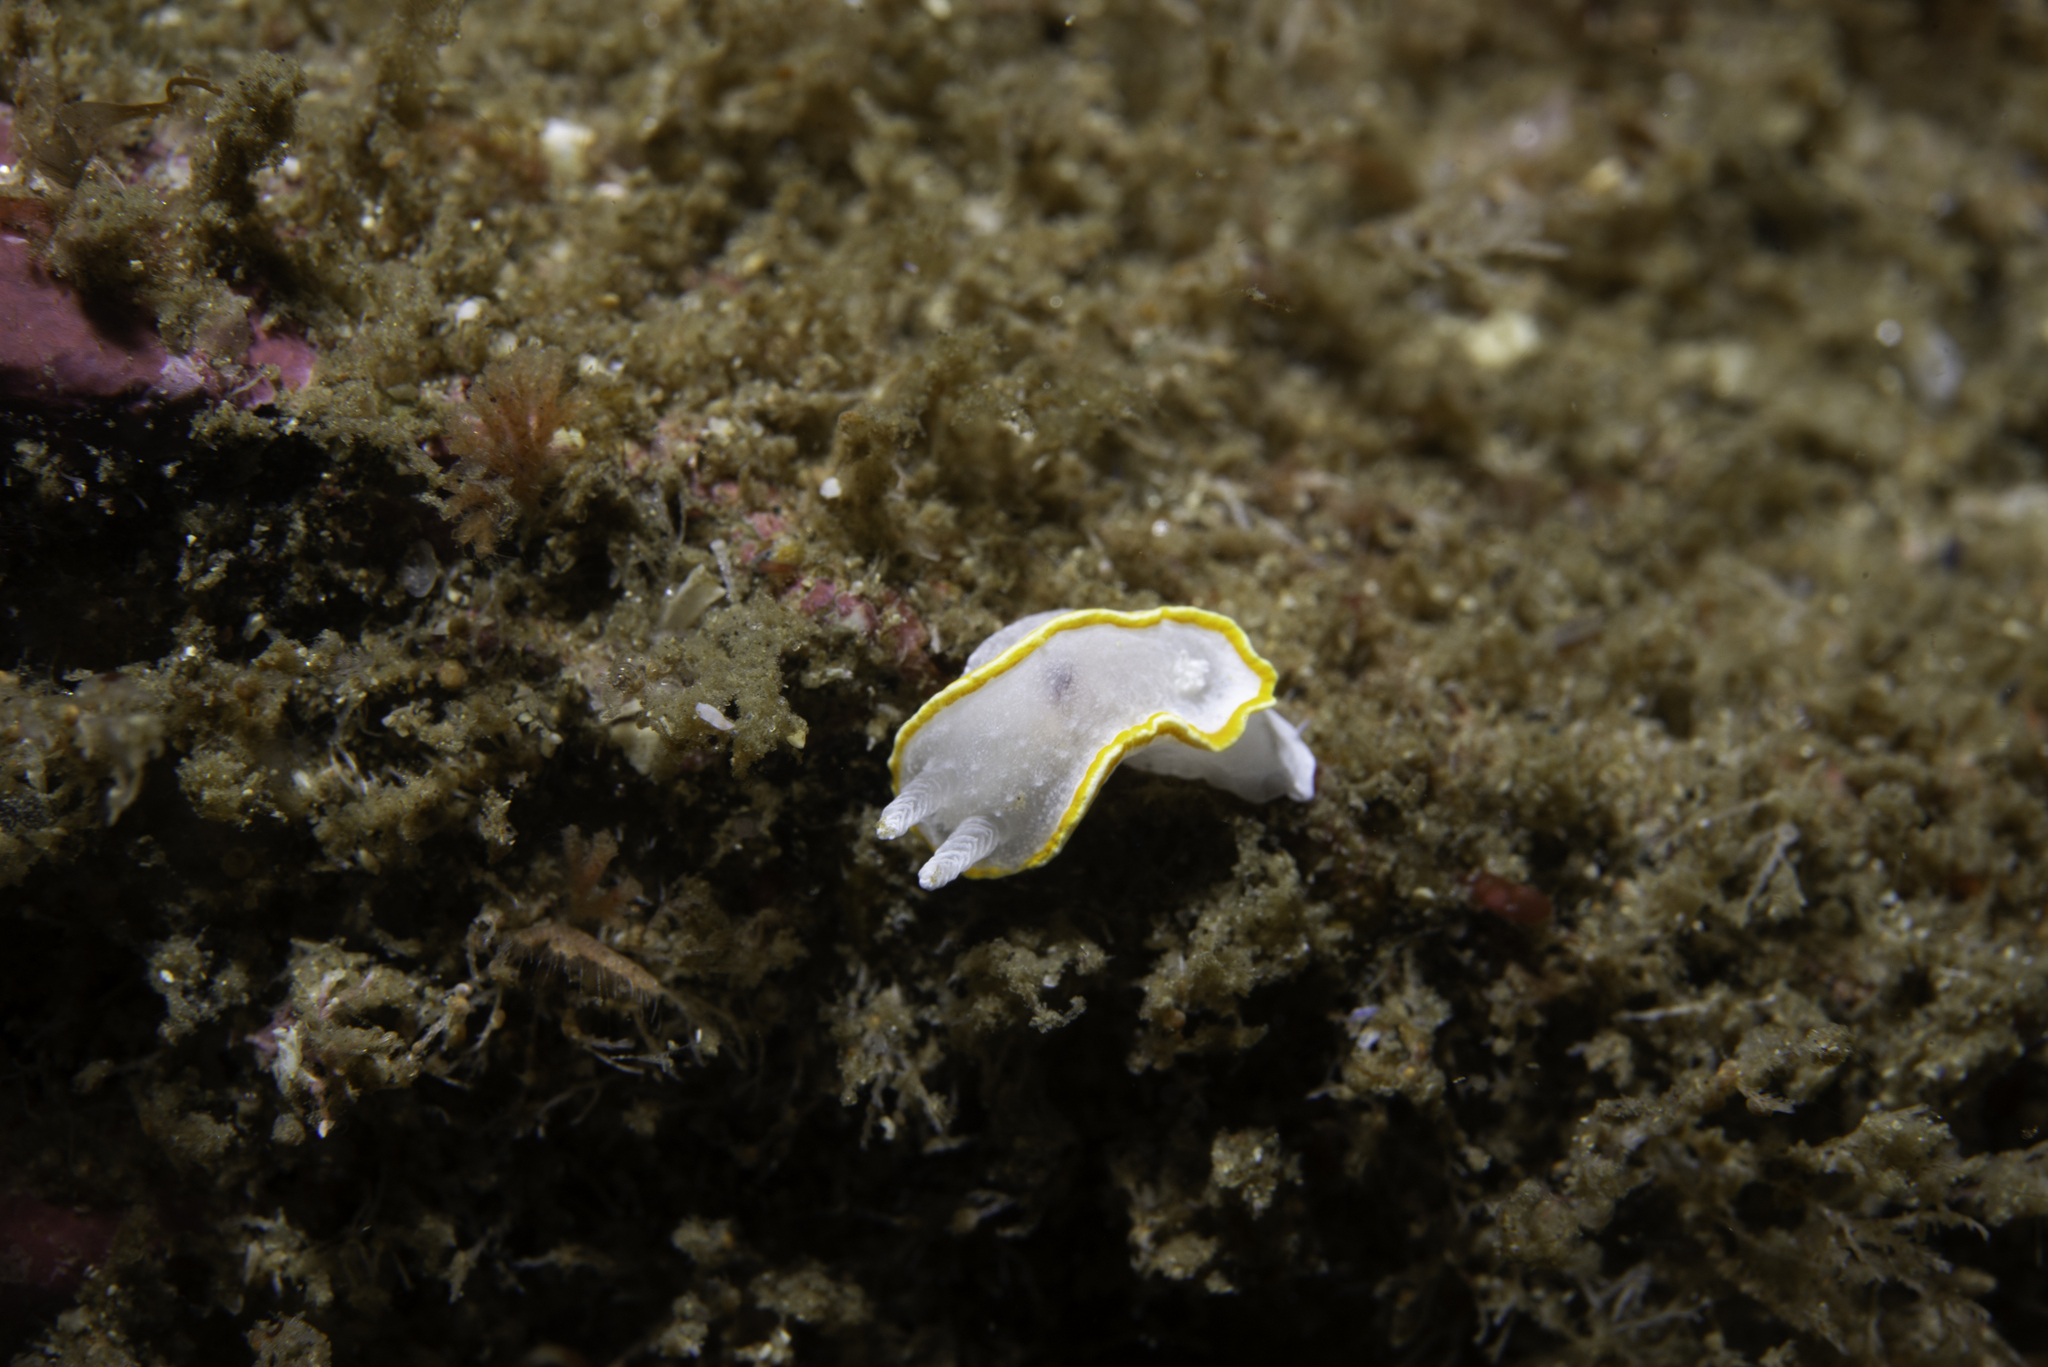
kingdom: Animalia
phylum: Mollusca
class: Gastropoda
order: Nudibranchia
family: Calycidorididae
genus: Diaphorodoris
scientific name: Diaphorodoris alba
